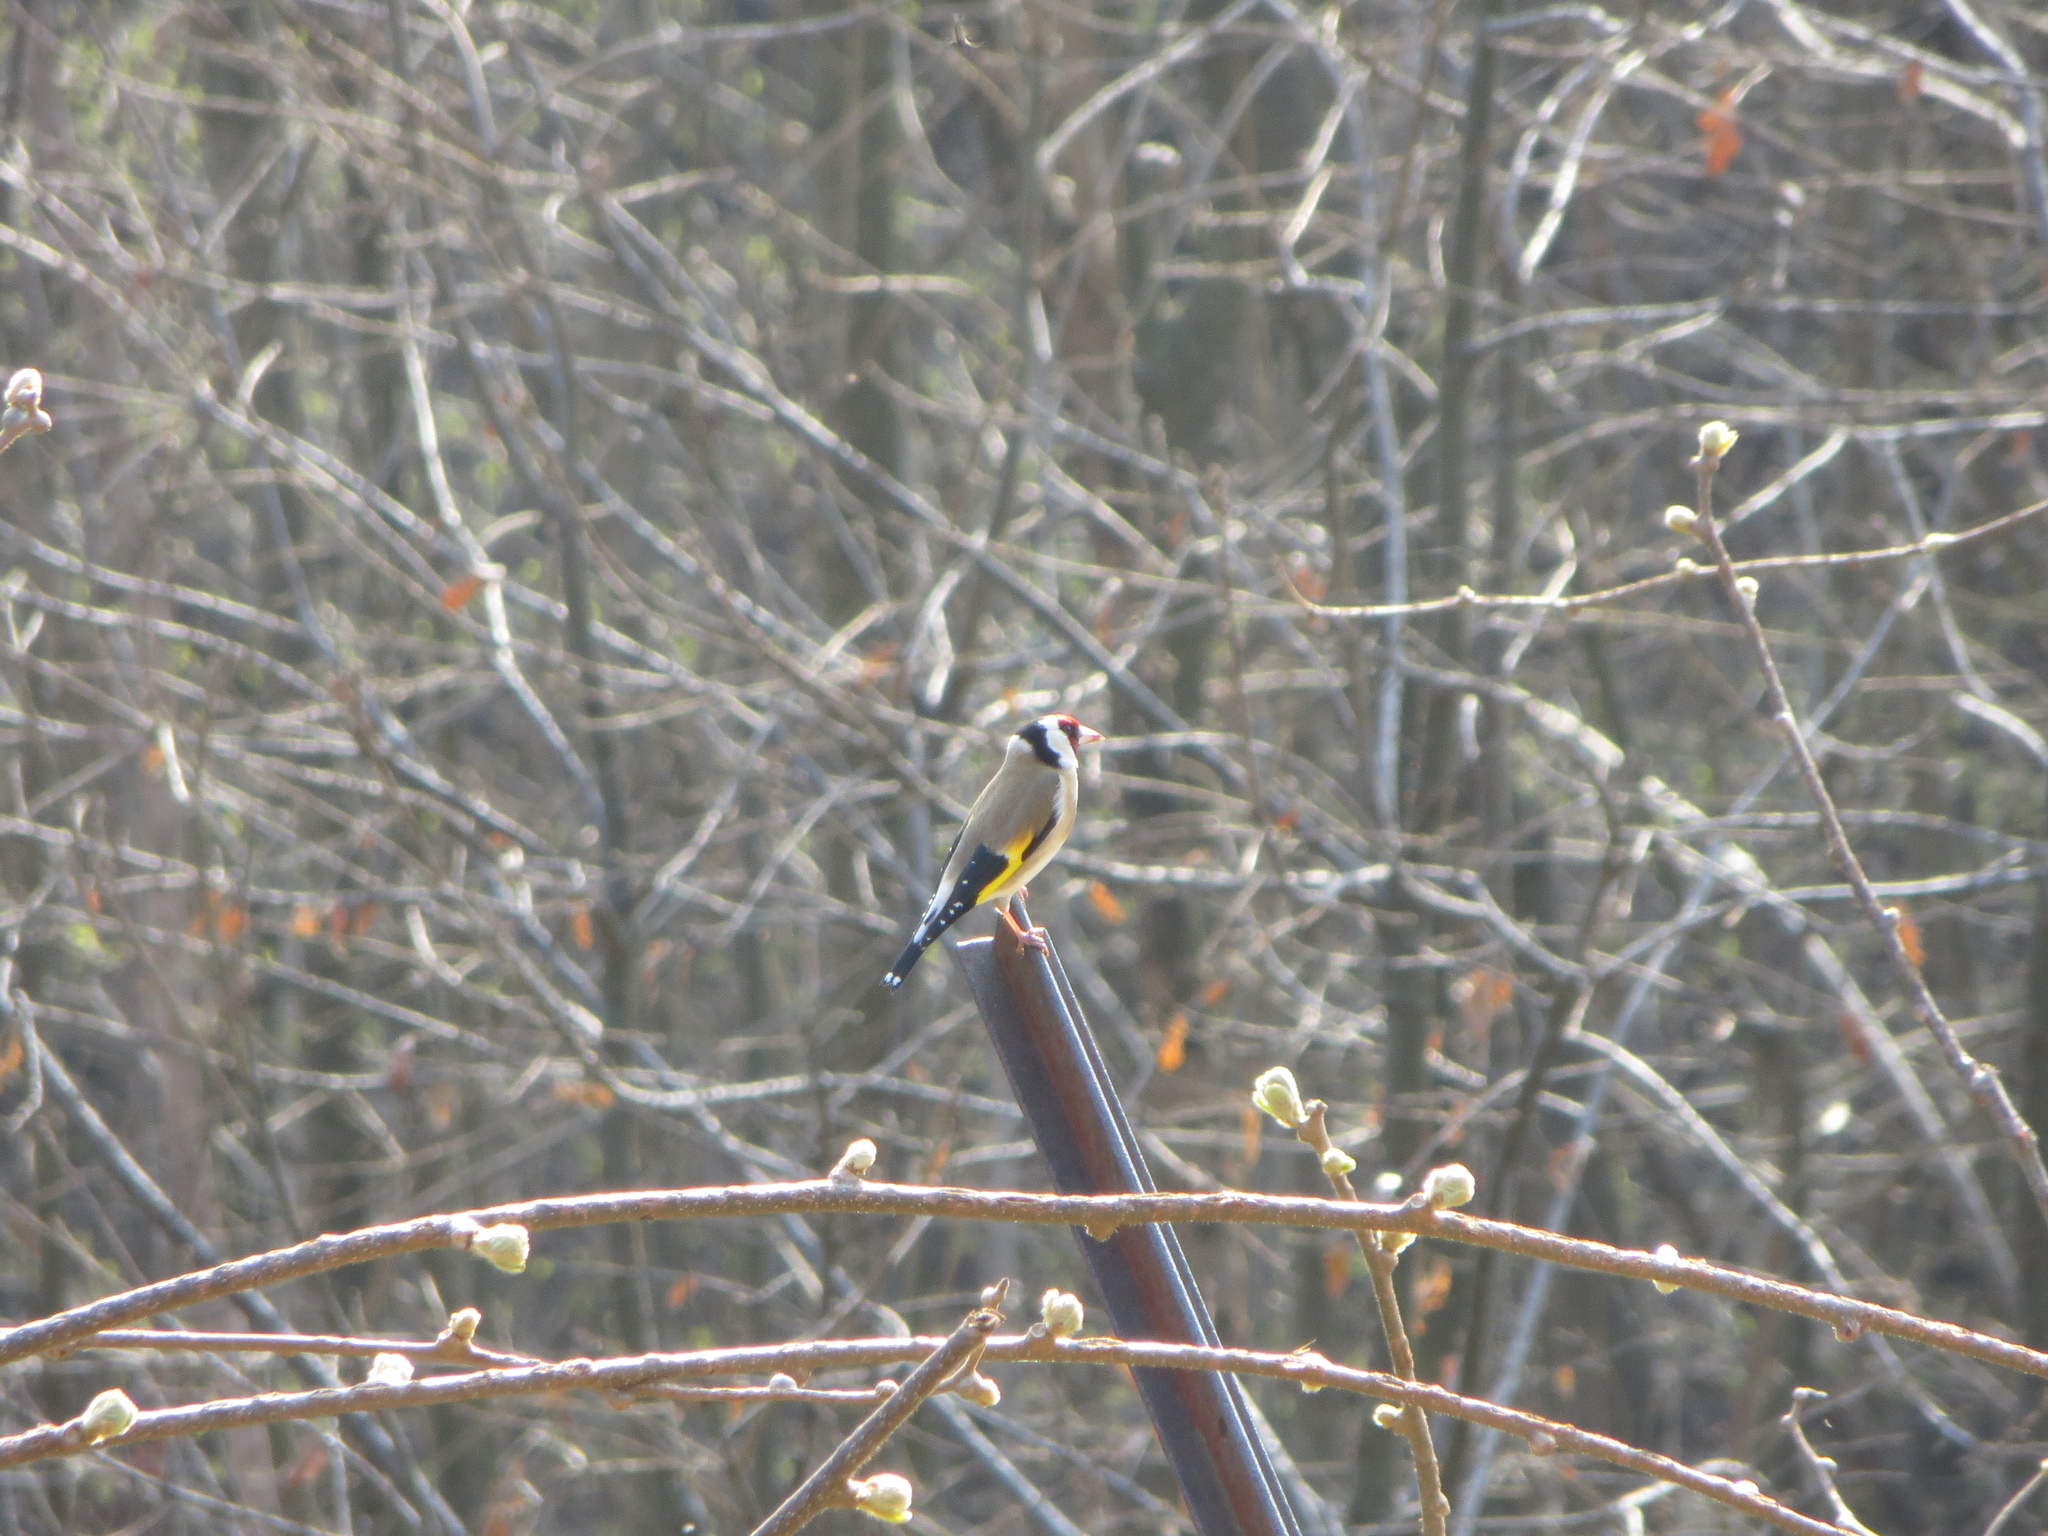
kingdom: Animalia
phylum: Chordata
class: Aves
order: Passeriformes
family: Fringillidae
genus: Carduelis
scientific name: Carduelis carduelis
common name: European goldfinch
